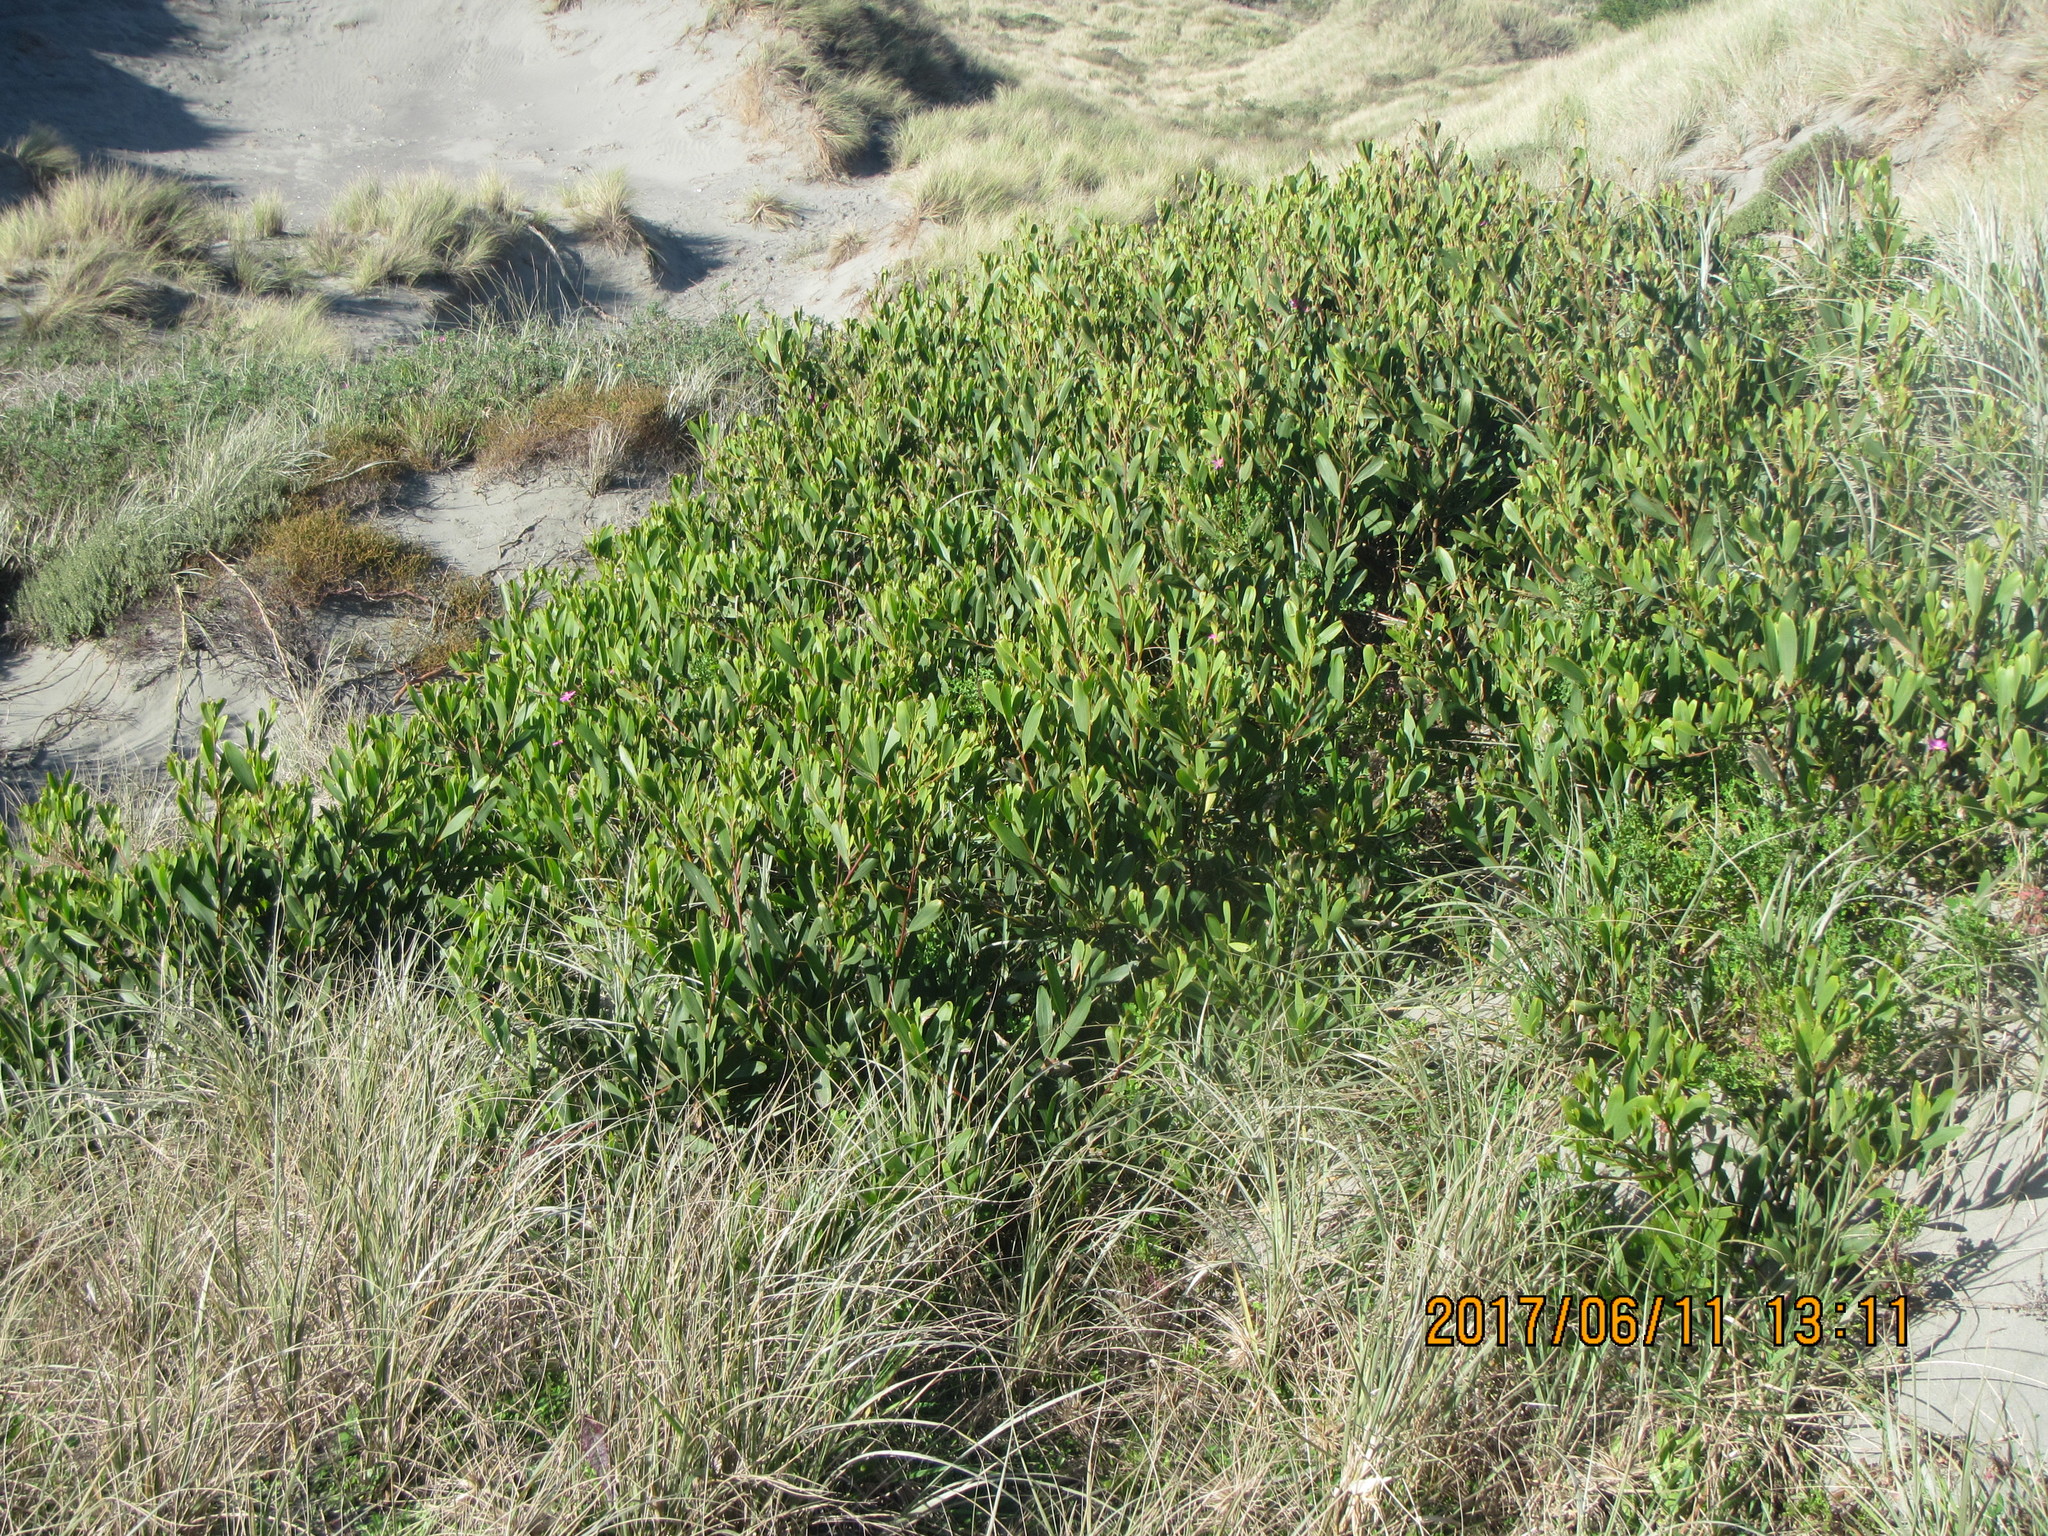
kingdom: Plantae
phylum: Tracheophyta
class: Magnoliopsida
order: Fabales
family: Fabaceae
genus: Acacia
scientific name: Acacia longifolia
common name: Sydney golden wattle
